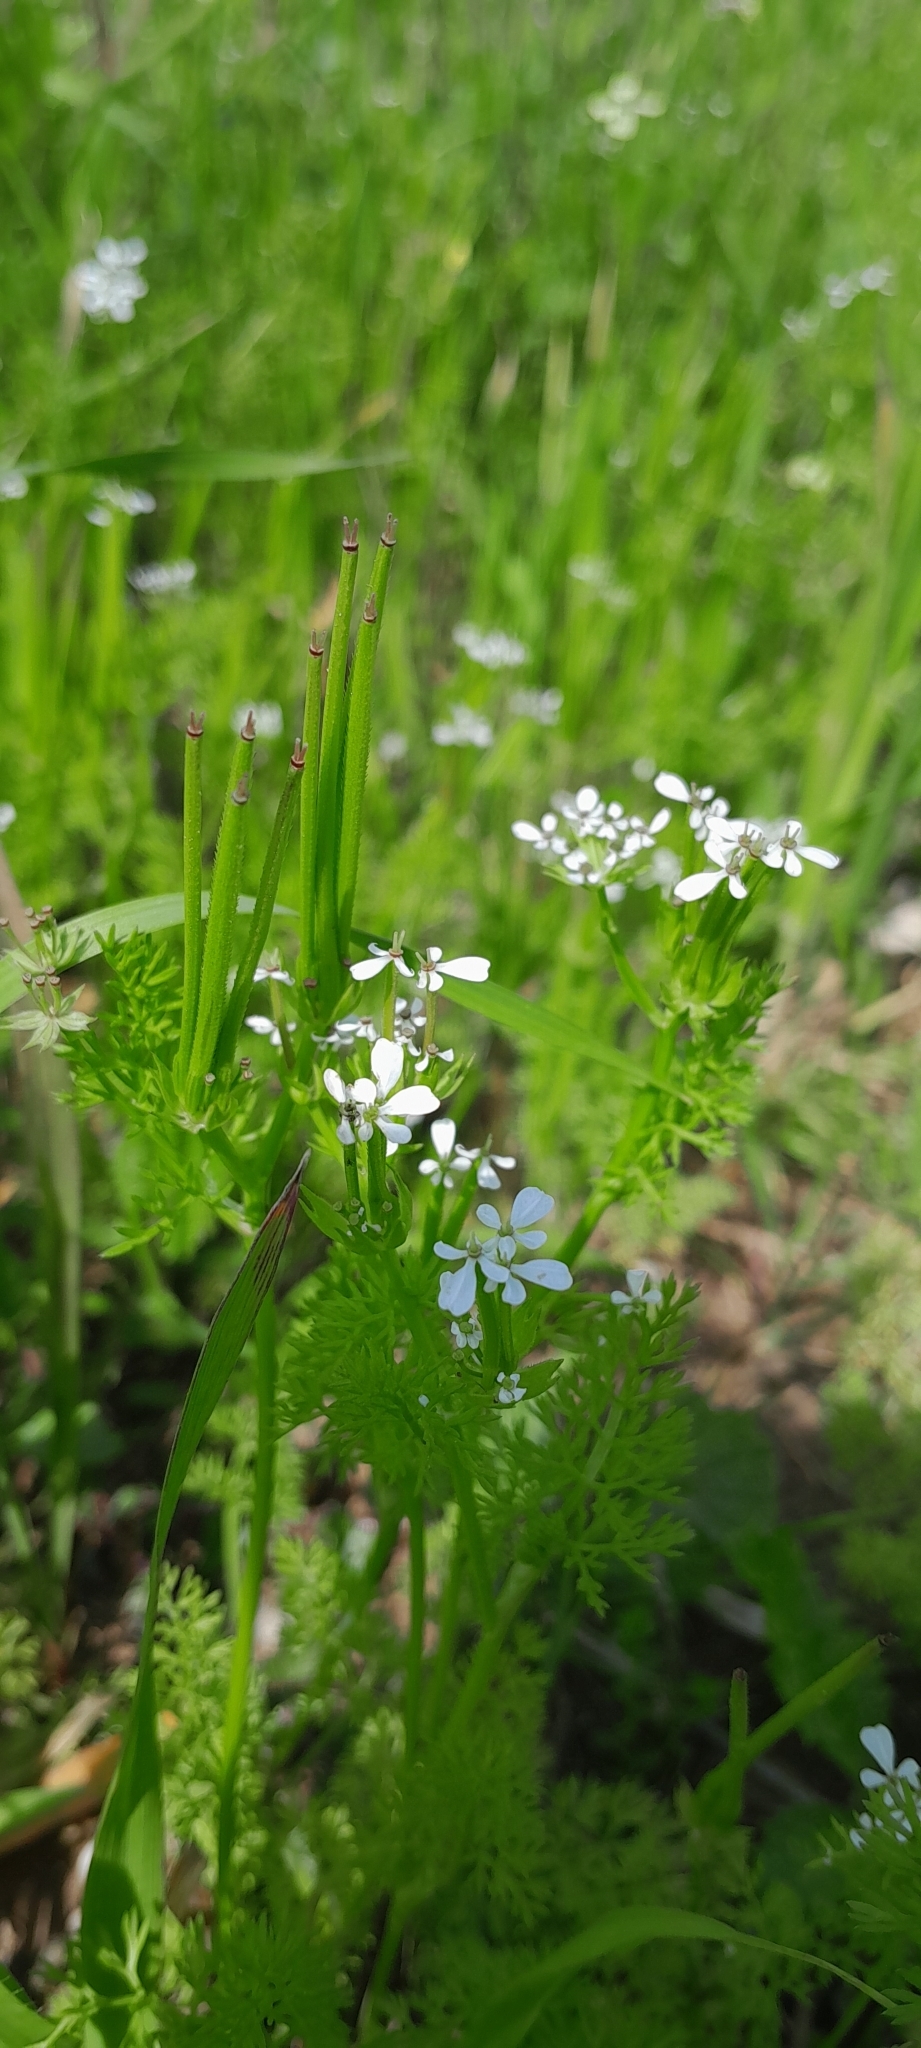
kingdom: Plantae
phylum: Tracheophyta
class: Magnoliopsida
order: Apiales
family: Apiaceae
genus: Scandix
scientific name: Scandix pecten-veneris
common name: Shepherd's-needle
